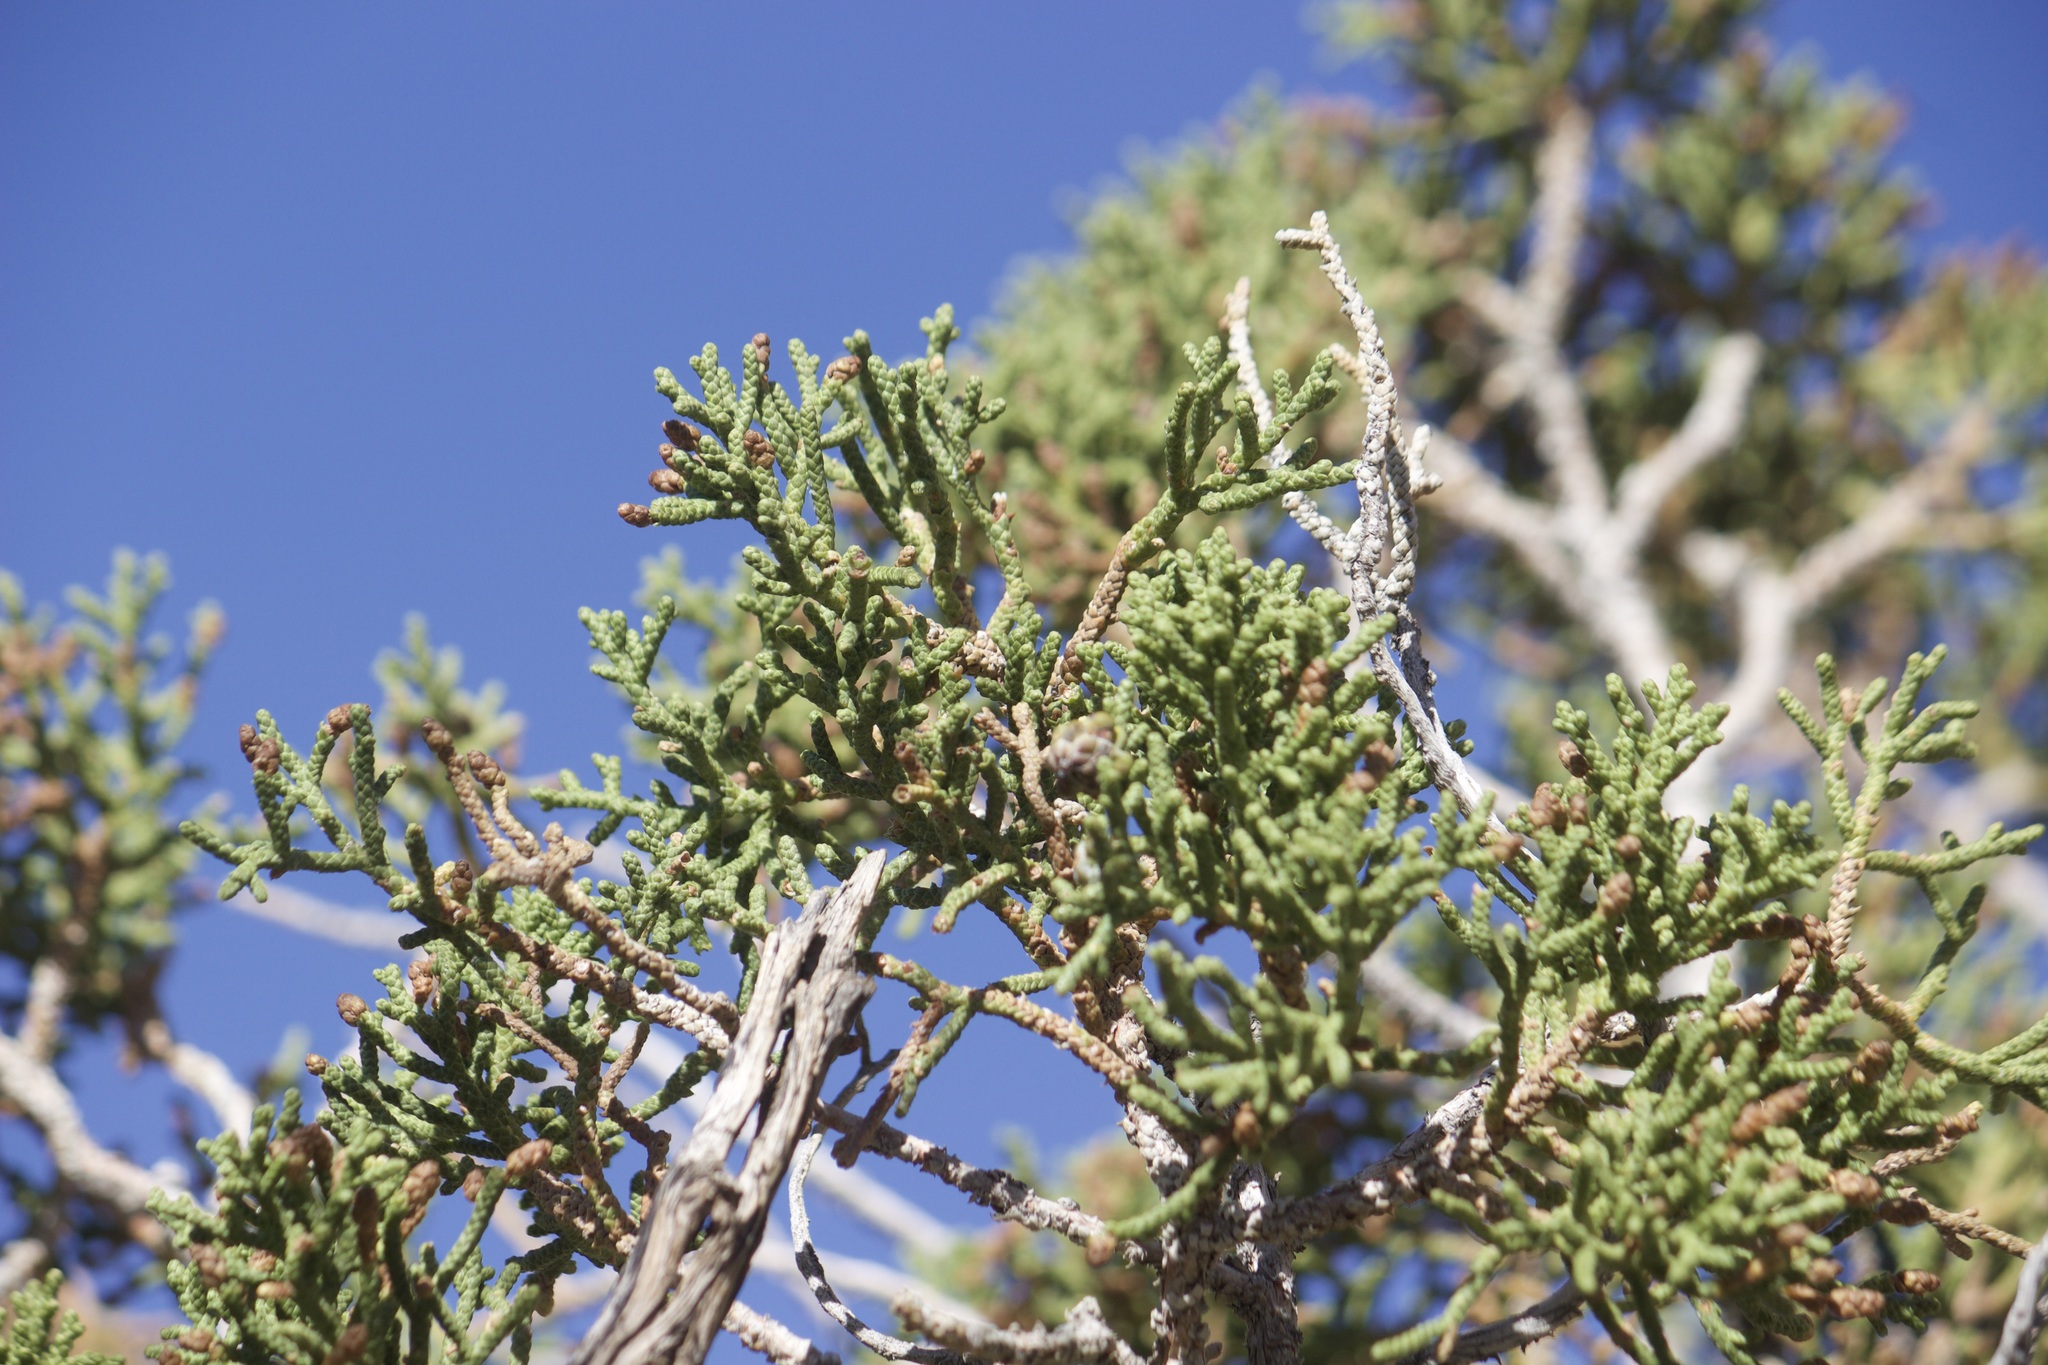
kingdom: Plantae
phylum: Tracheophyta
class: Pinopsida
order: Pinales
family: Cupressaceae
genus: Juniperus
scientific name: Juniperus californica
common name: California juniper
